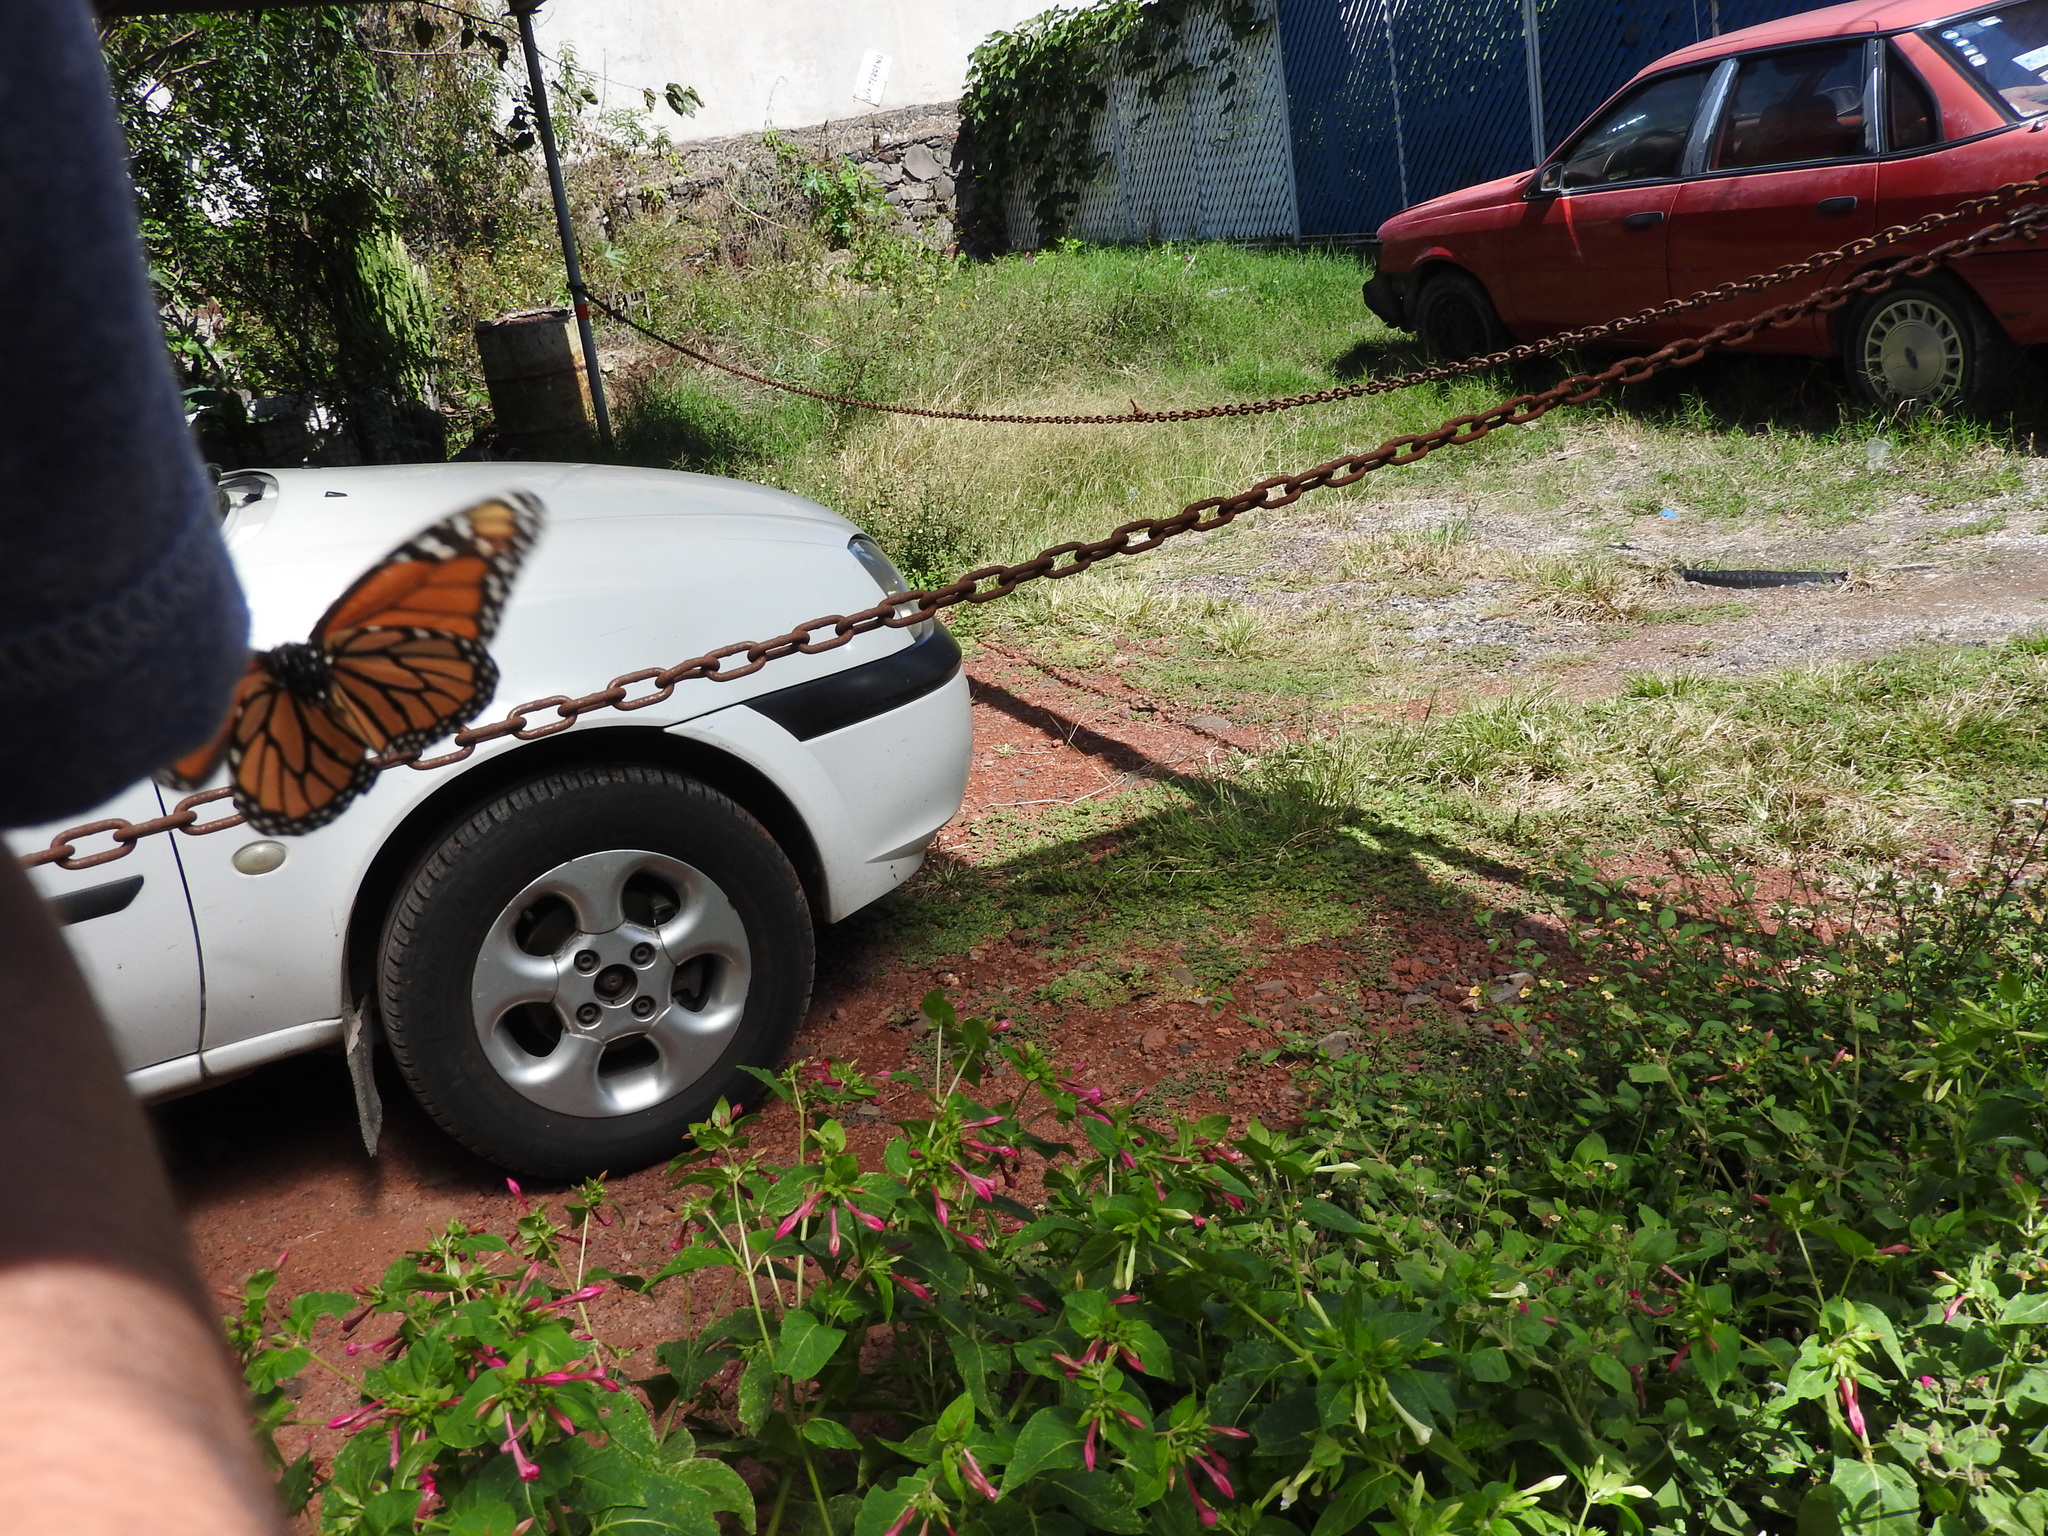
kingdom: Animalia
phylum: Arthropoda
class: Insecta
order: Lepidoptera
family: Nymphalidae
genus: Danaus
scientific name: Danaus plexippus
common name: Monarch
